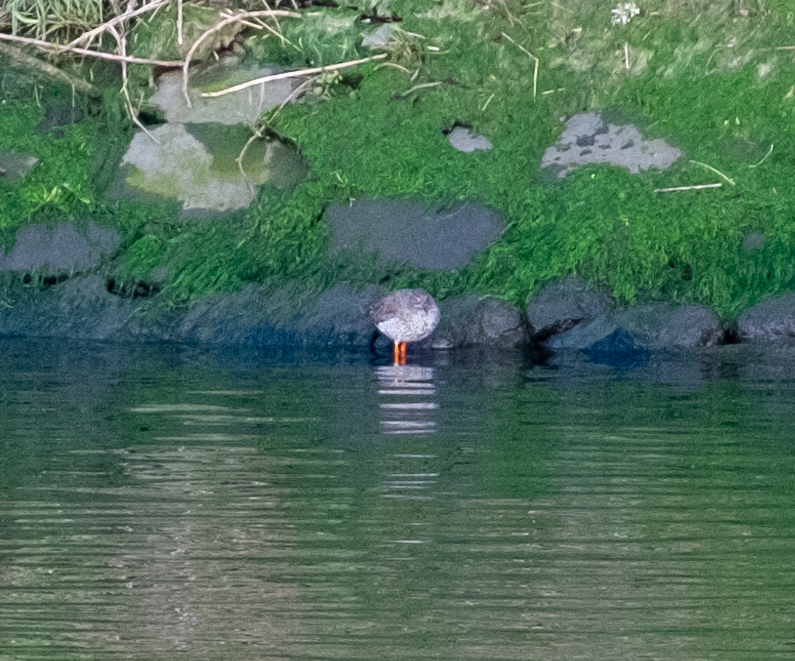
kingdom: Animalia
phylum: Chordata
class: Aves
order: Charadriiformes
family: Scolopacidae
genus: Tringa
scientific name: Tringa totanus
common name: Common redshank
